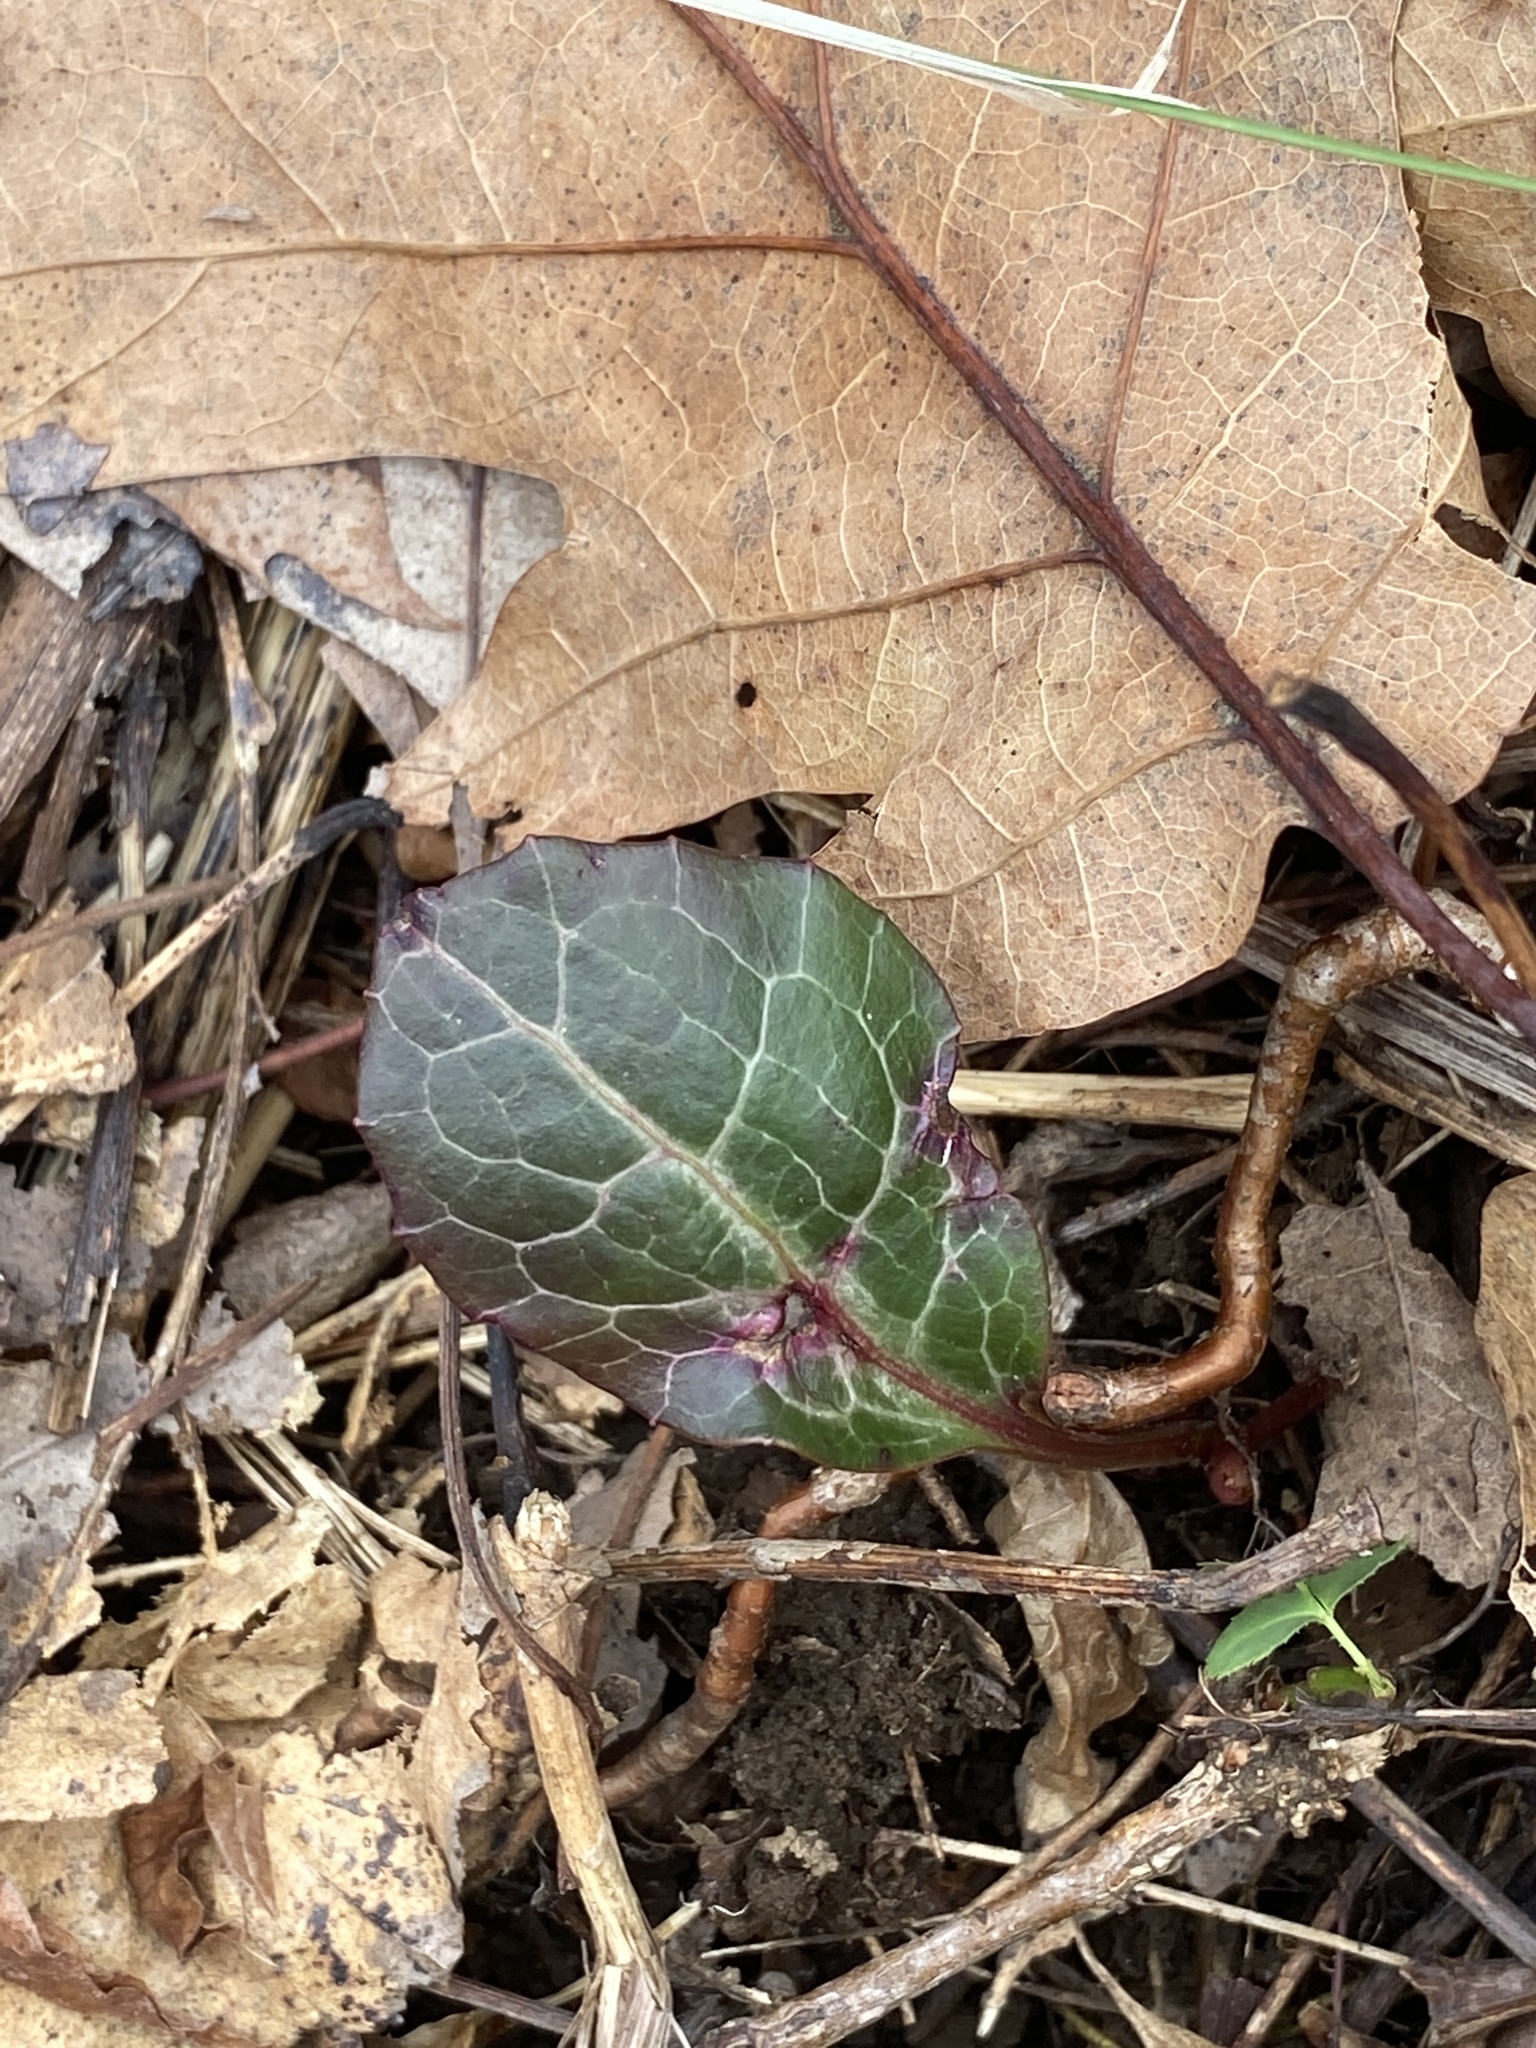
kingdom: Plantae
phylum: Tracheophyta
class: Magnoliopsida
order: Ericales
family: Ericaceae
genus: Pyrola
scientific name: Pyrola americana
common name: American wintergreen
